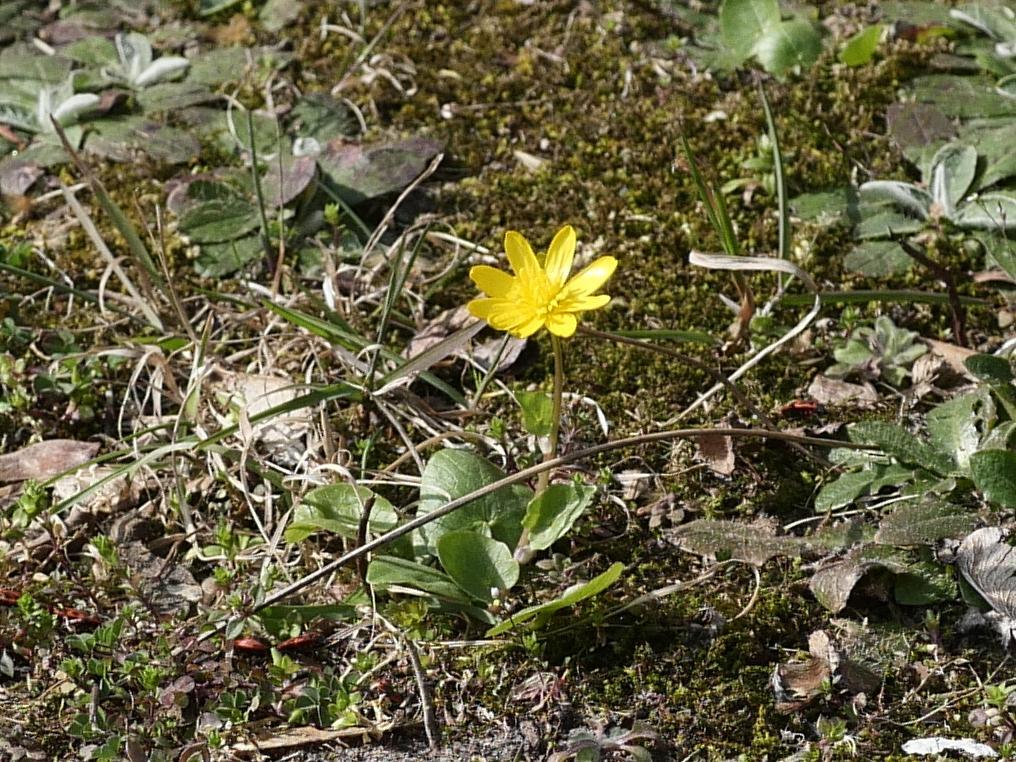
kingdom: Plantae
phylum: Tracheophyta
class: Magnoliopsida
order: Ranunculales
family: Ranunculaceae
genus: Ficaria
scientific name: Ficaria verna
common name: Lesser celandine
